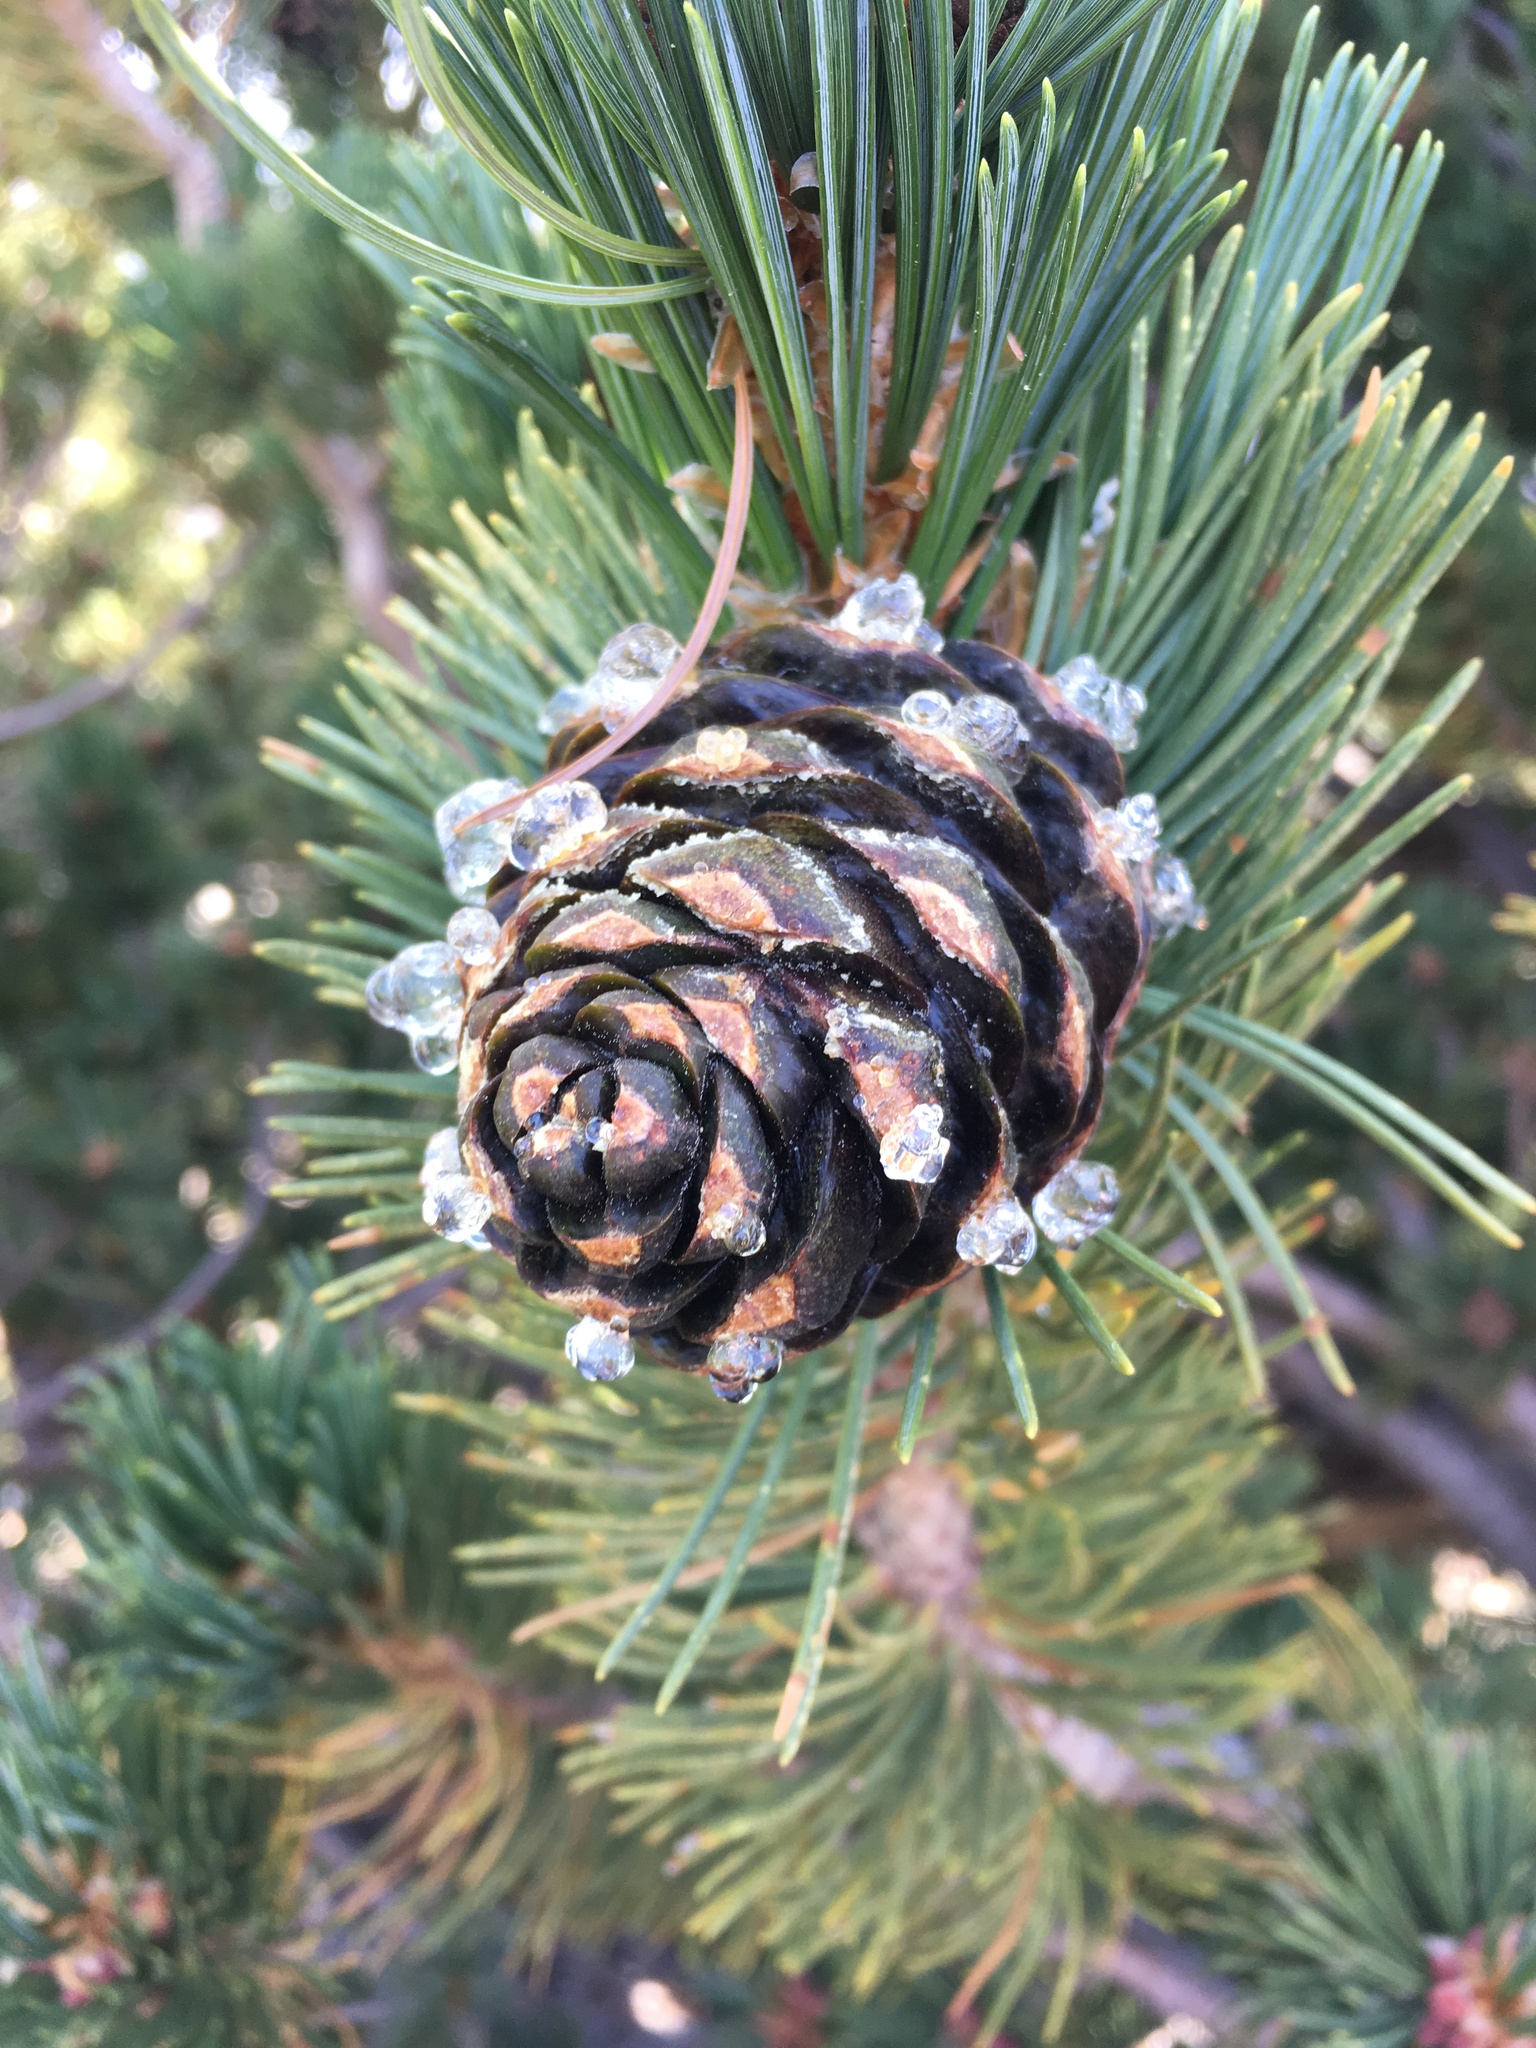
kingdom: Plantae
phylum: Tracheophyta
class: Pinopsida
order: Pinales
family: Pinaceae
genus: Pinus
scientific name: Pinus albicaulis
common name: Whitebark pine
